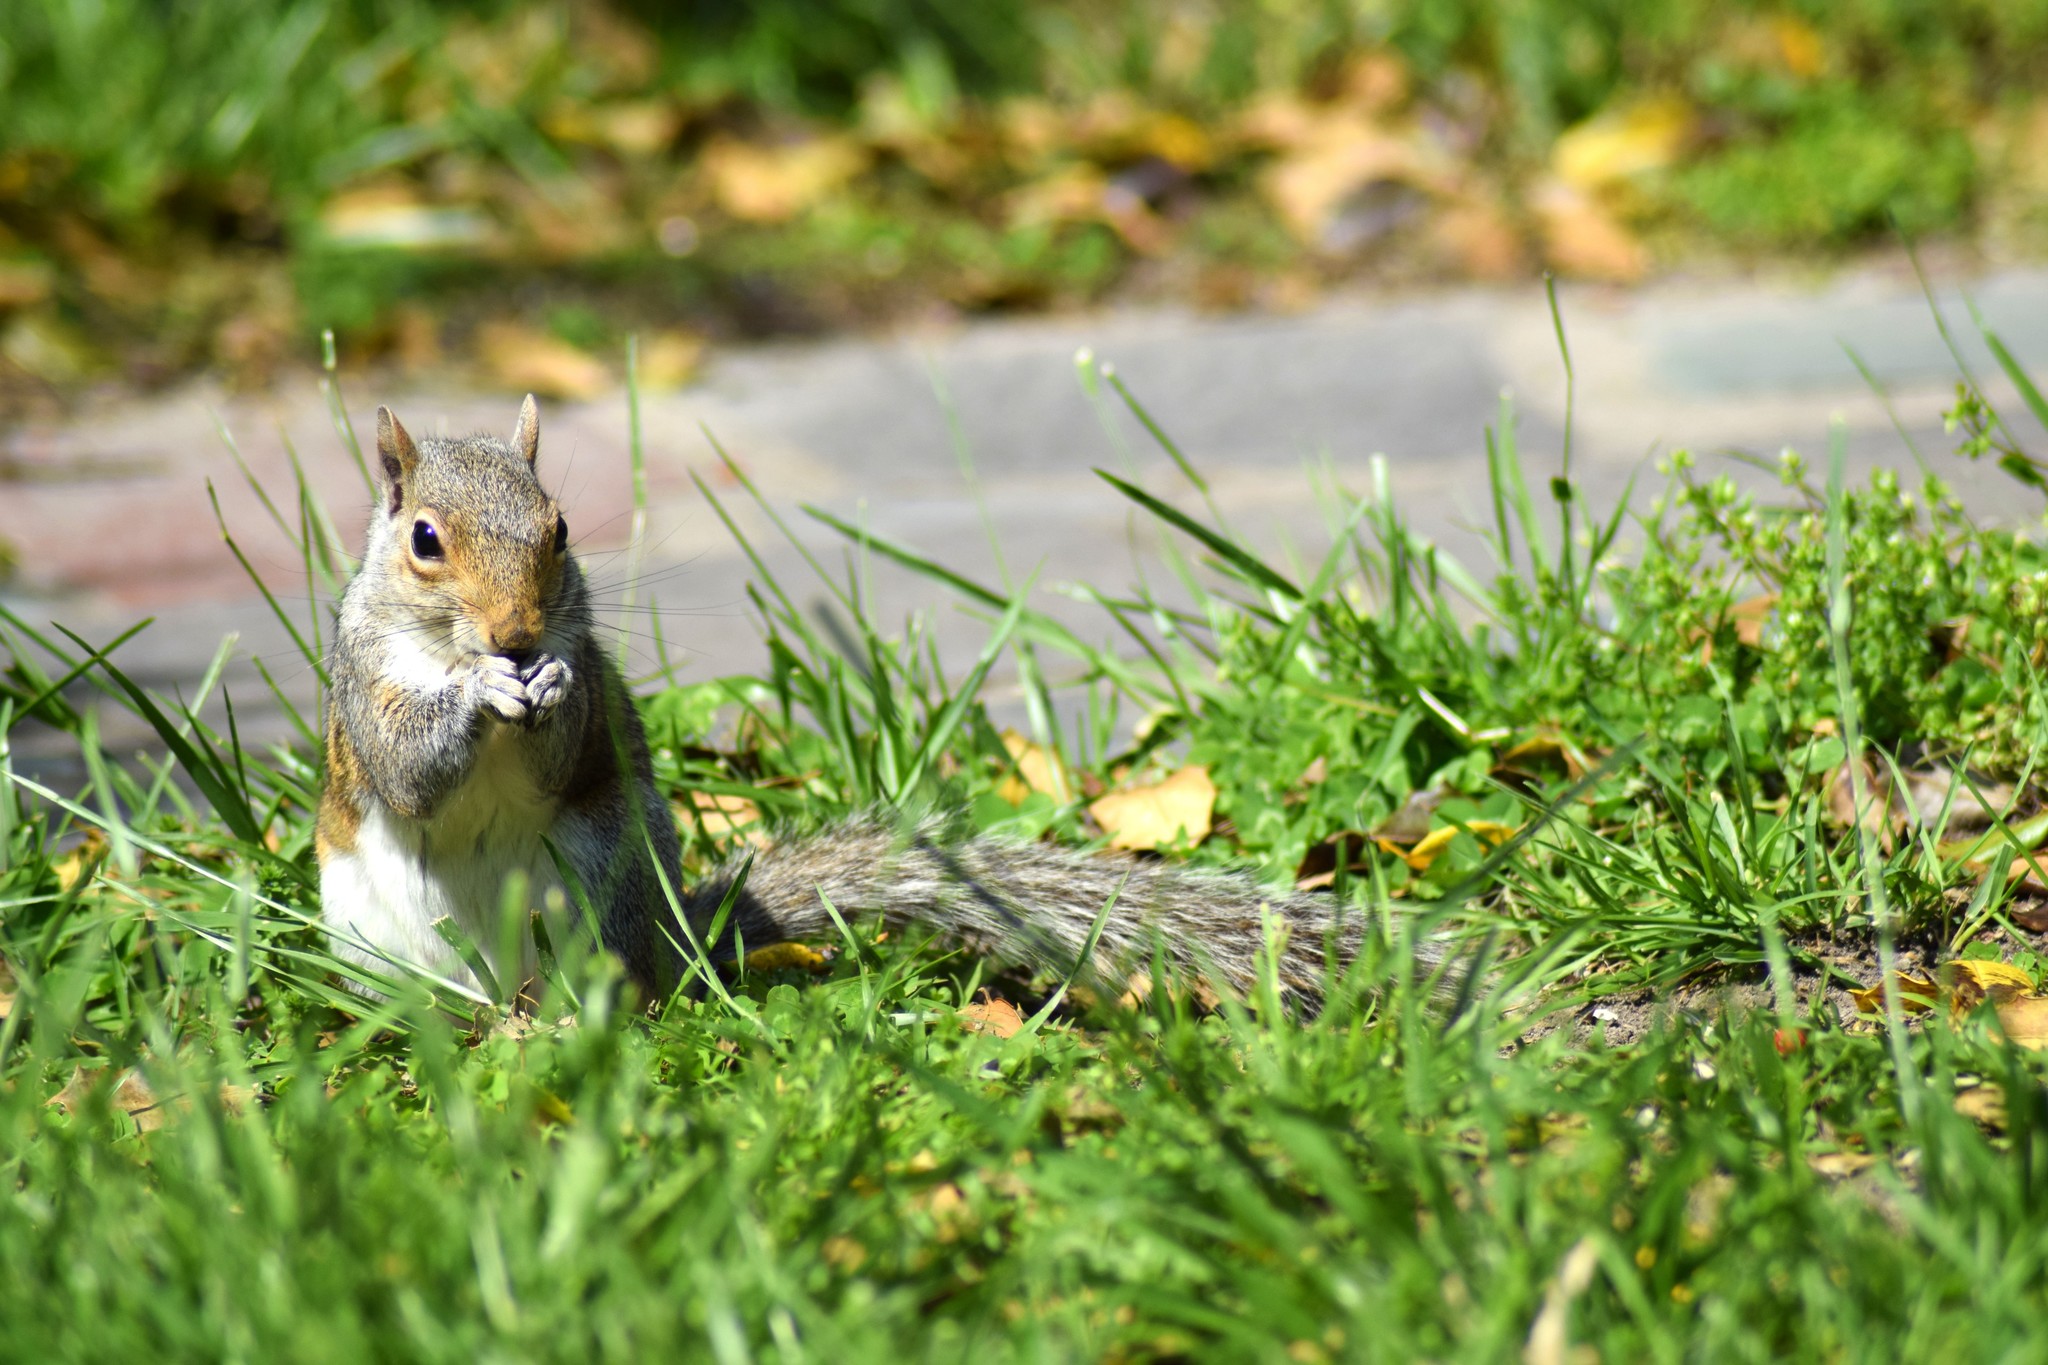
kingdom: Animalia
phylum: Chordata
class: Mammalia
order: Rodentia
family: Sciuridae
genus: Sciurus
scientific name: Sciurus carolinensis
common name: Eastern gray squirrel
